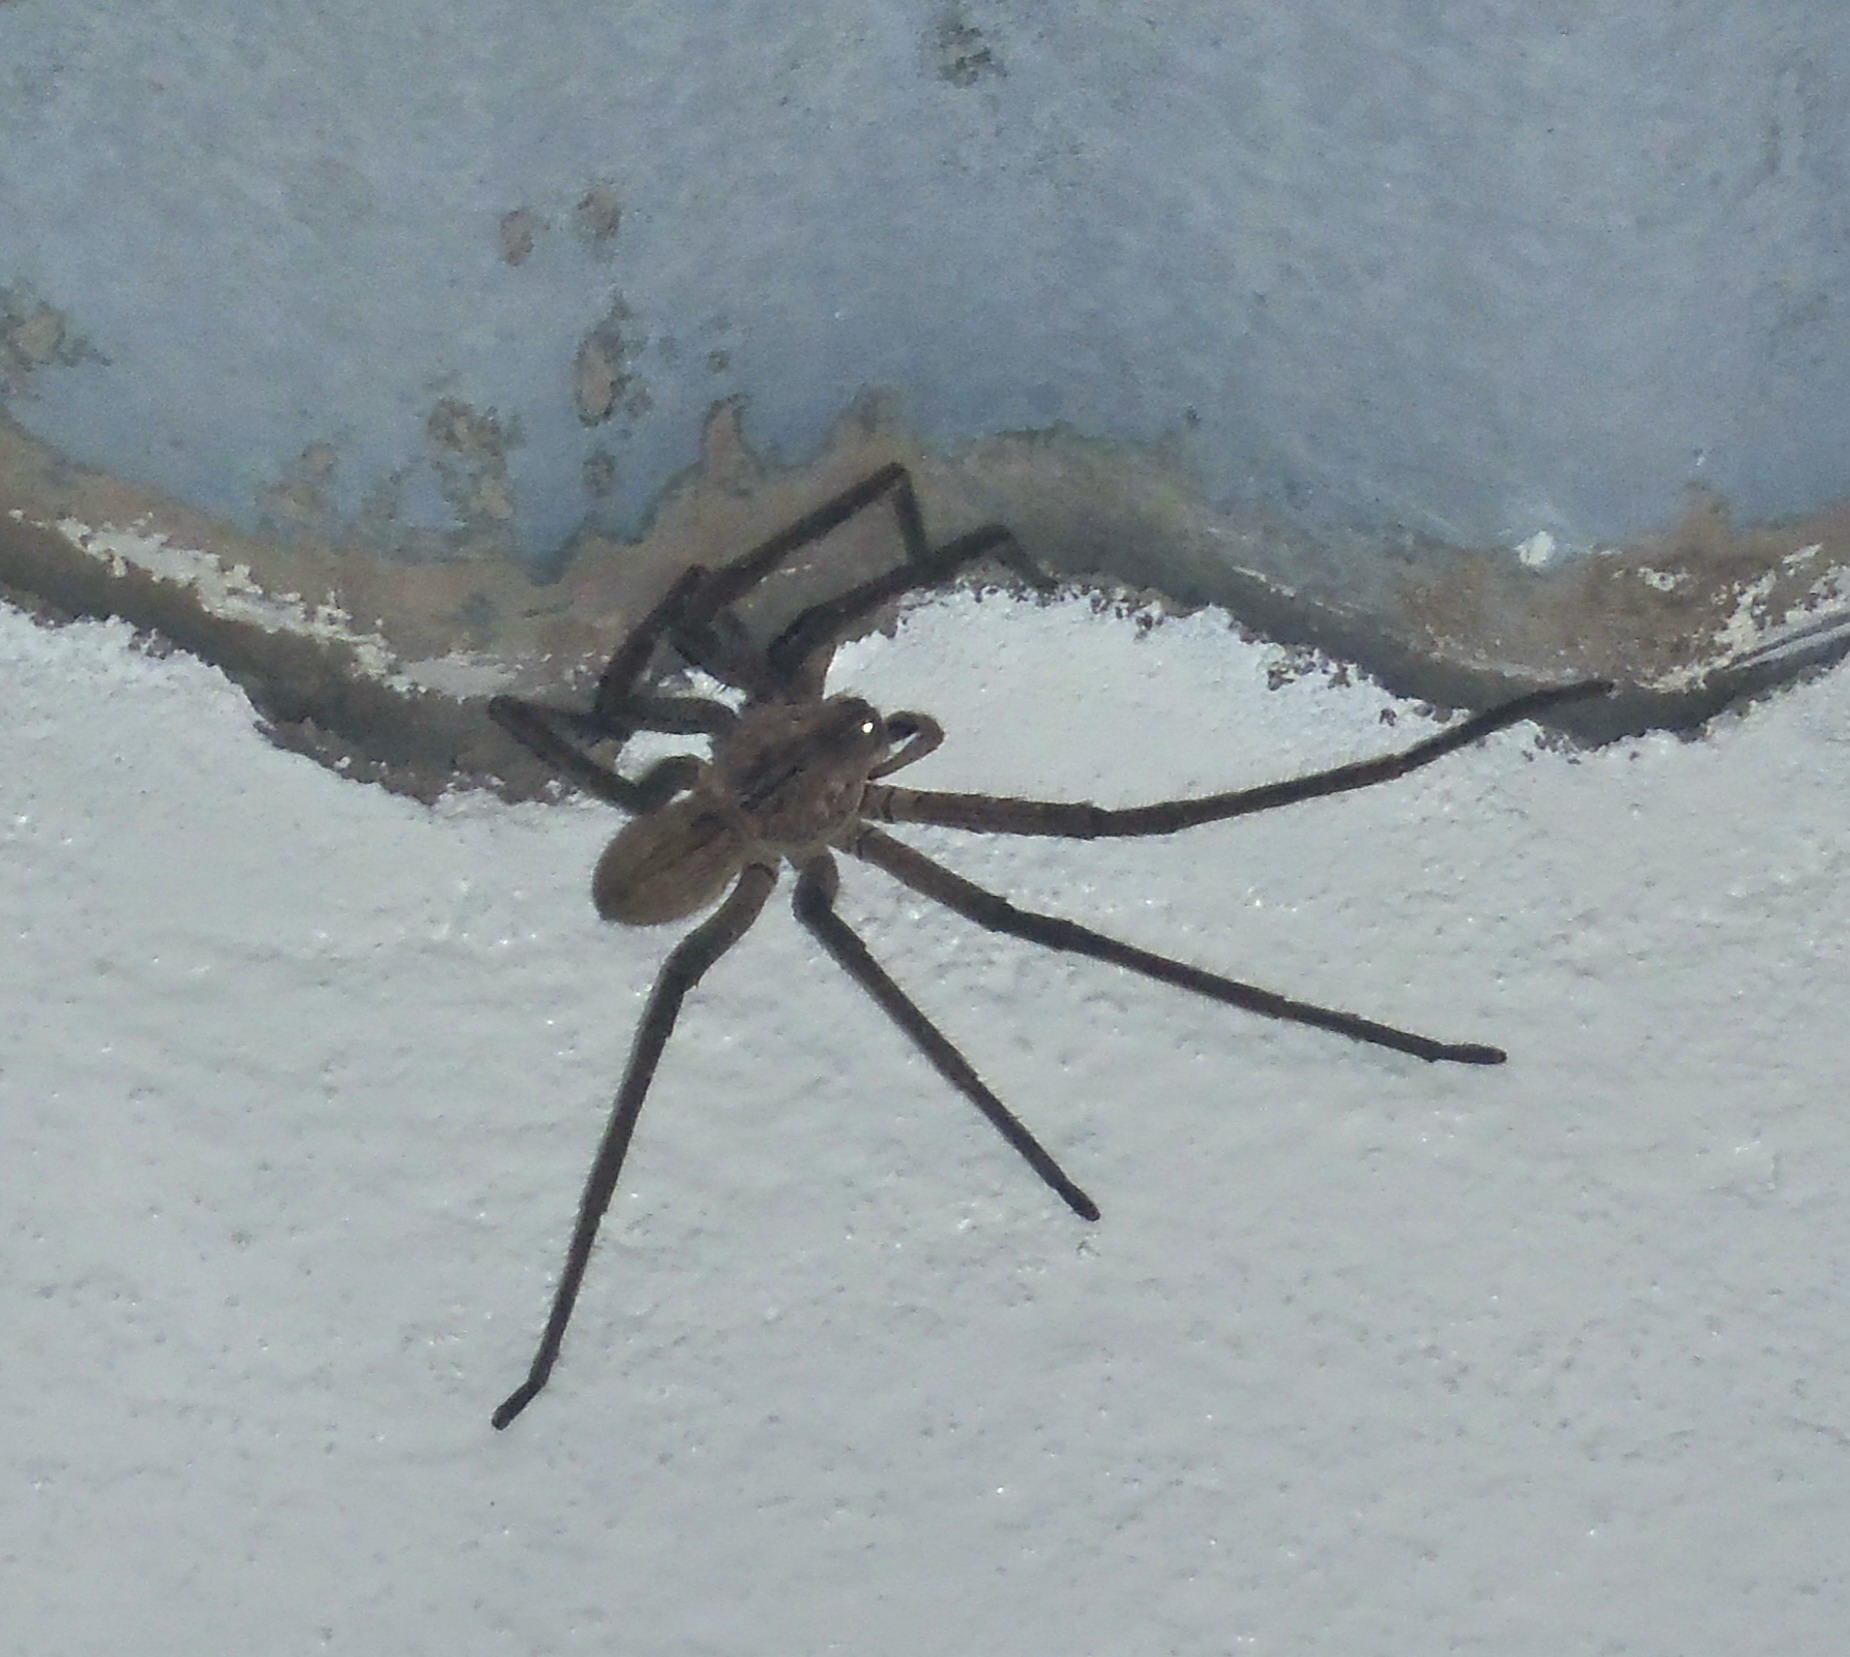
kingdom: Animalia
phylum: Arthropoda
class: Arachnida
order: Araneae
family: Sparassidae
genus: Palystes
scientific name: Palystes superciliosus
